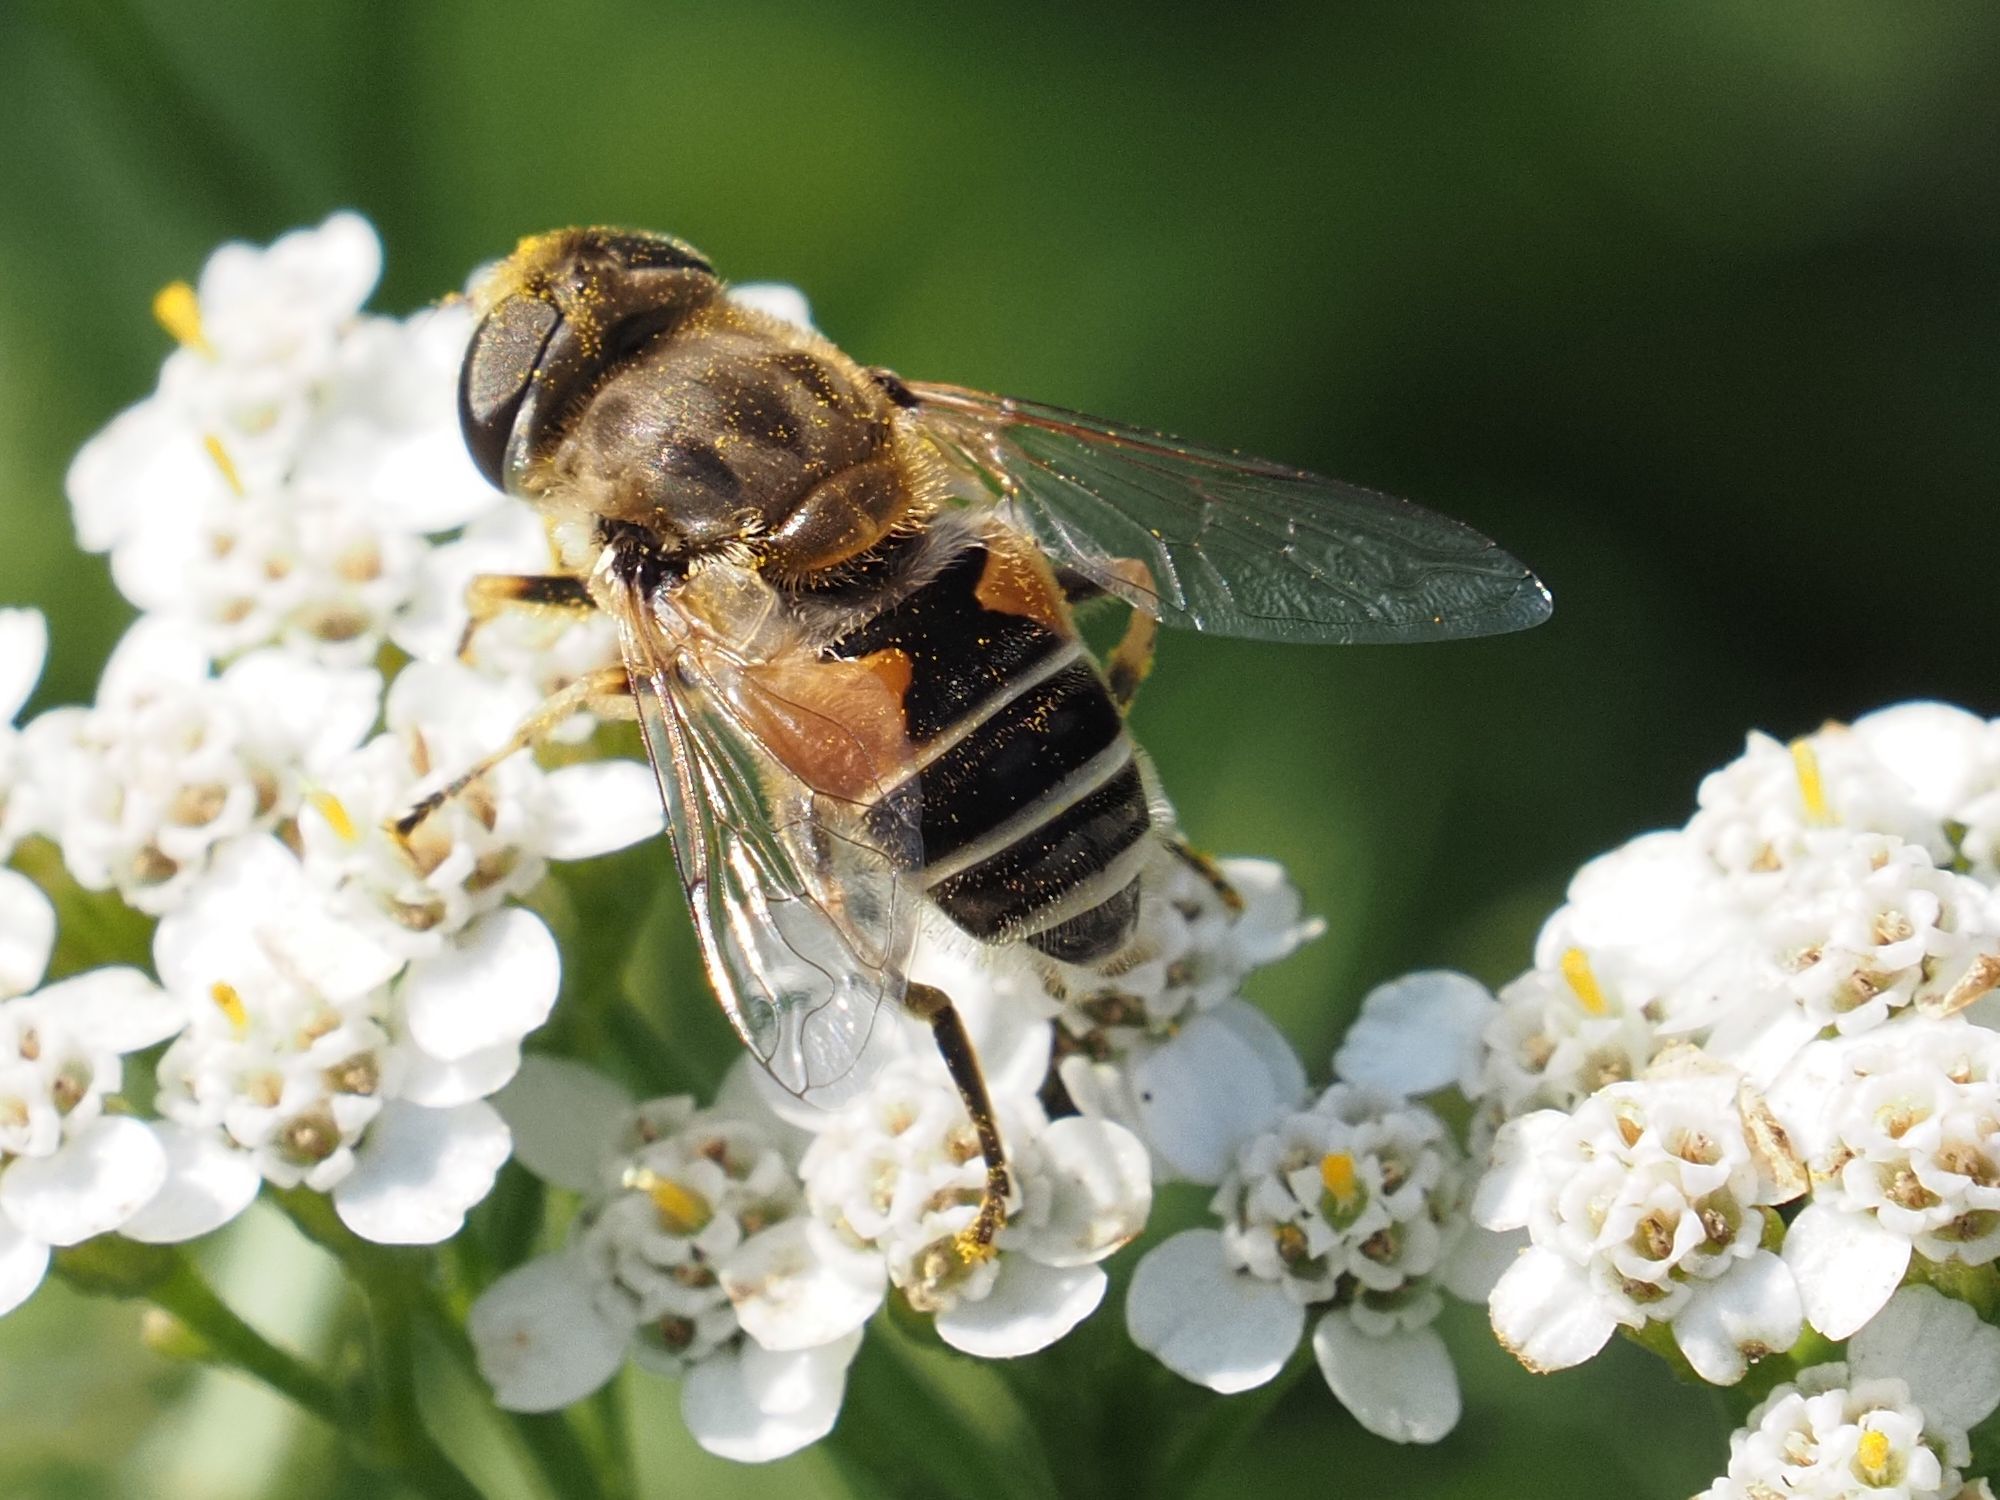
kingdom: Animalia
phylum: Arthropoda
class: Insecta
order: Diptera
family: Syrphidae
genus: Eristalis
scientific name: Eristalis arbustorum
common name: Hover fly
